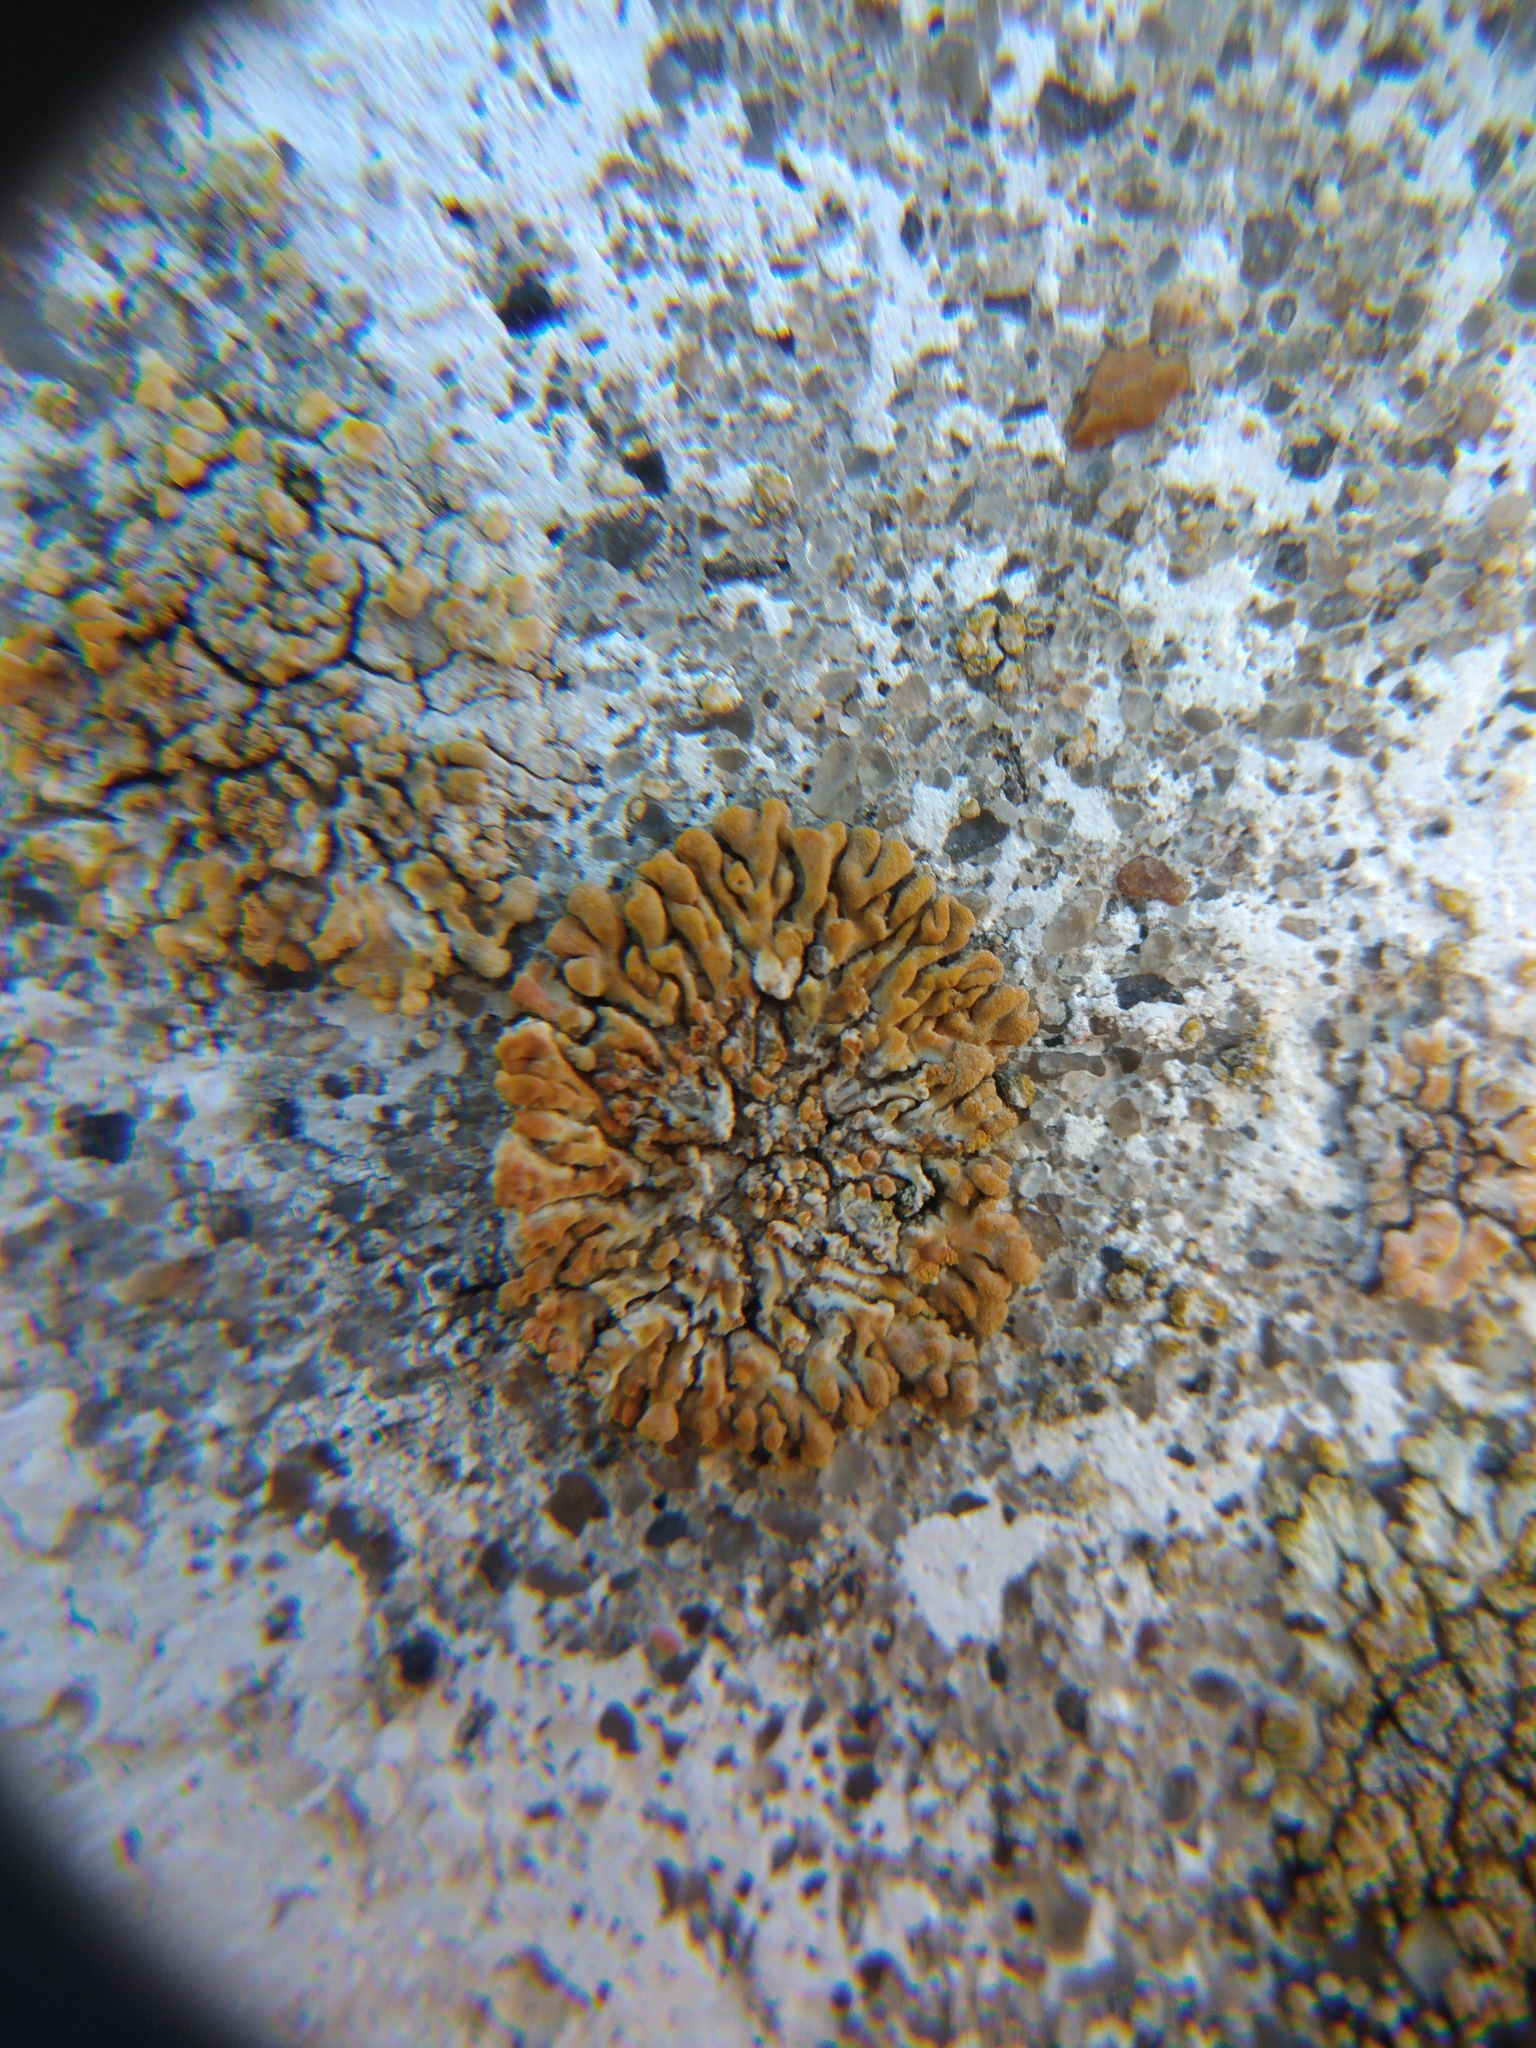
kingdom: Fungi
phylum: Ascomycota
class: Lecanoromycetes
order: Teloschistales
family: Teloschistaceae
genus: Calogaya
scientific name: Calogaya saxicola
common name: Rock jewel lichen
